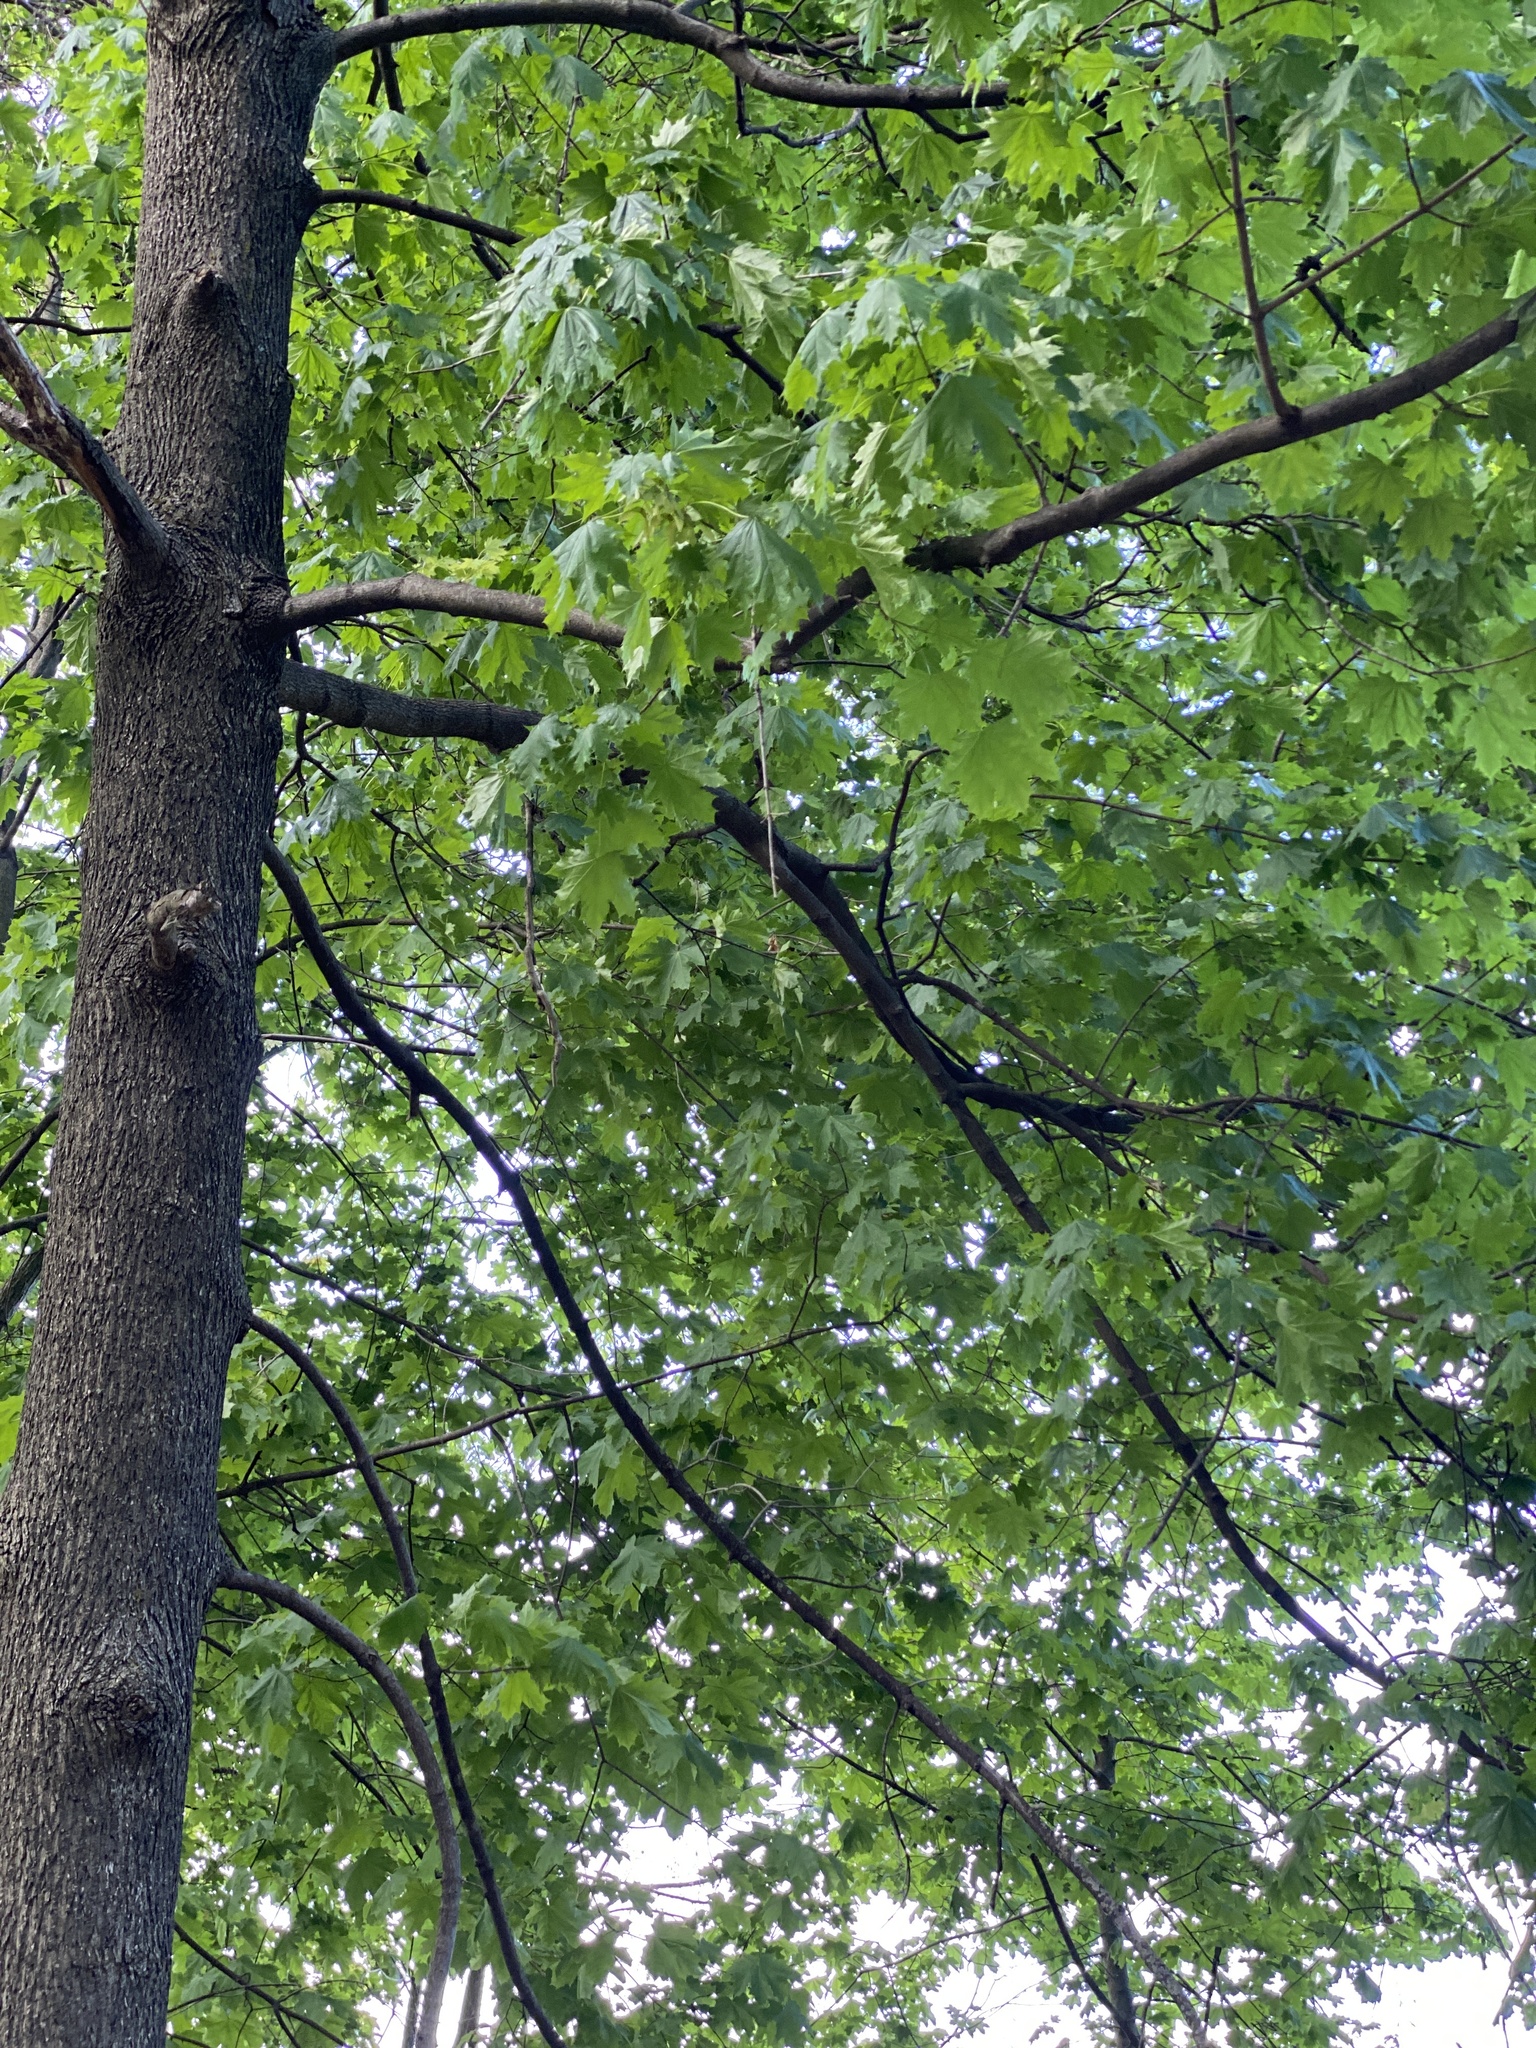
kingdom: Plantae
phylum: Tracheophyta
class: Magnoliopsida
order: Sapindales
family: Sapindaceae
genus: Acer
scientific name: Acer platanoides
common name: Norway maple
